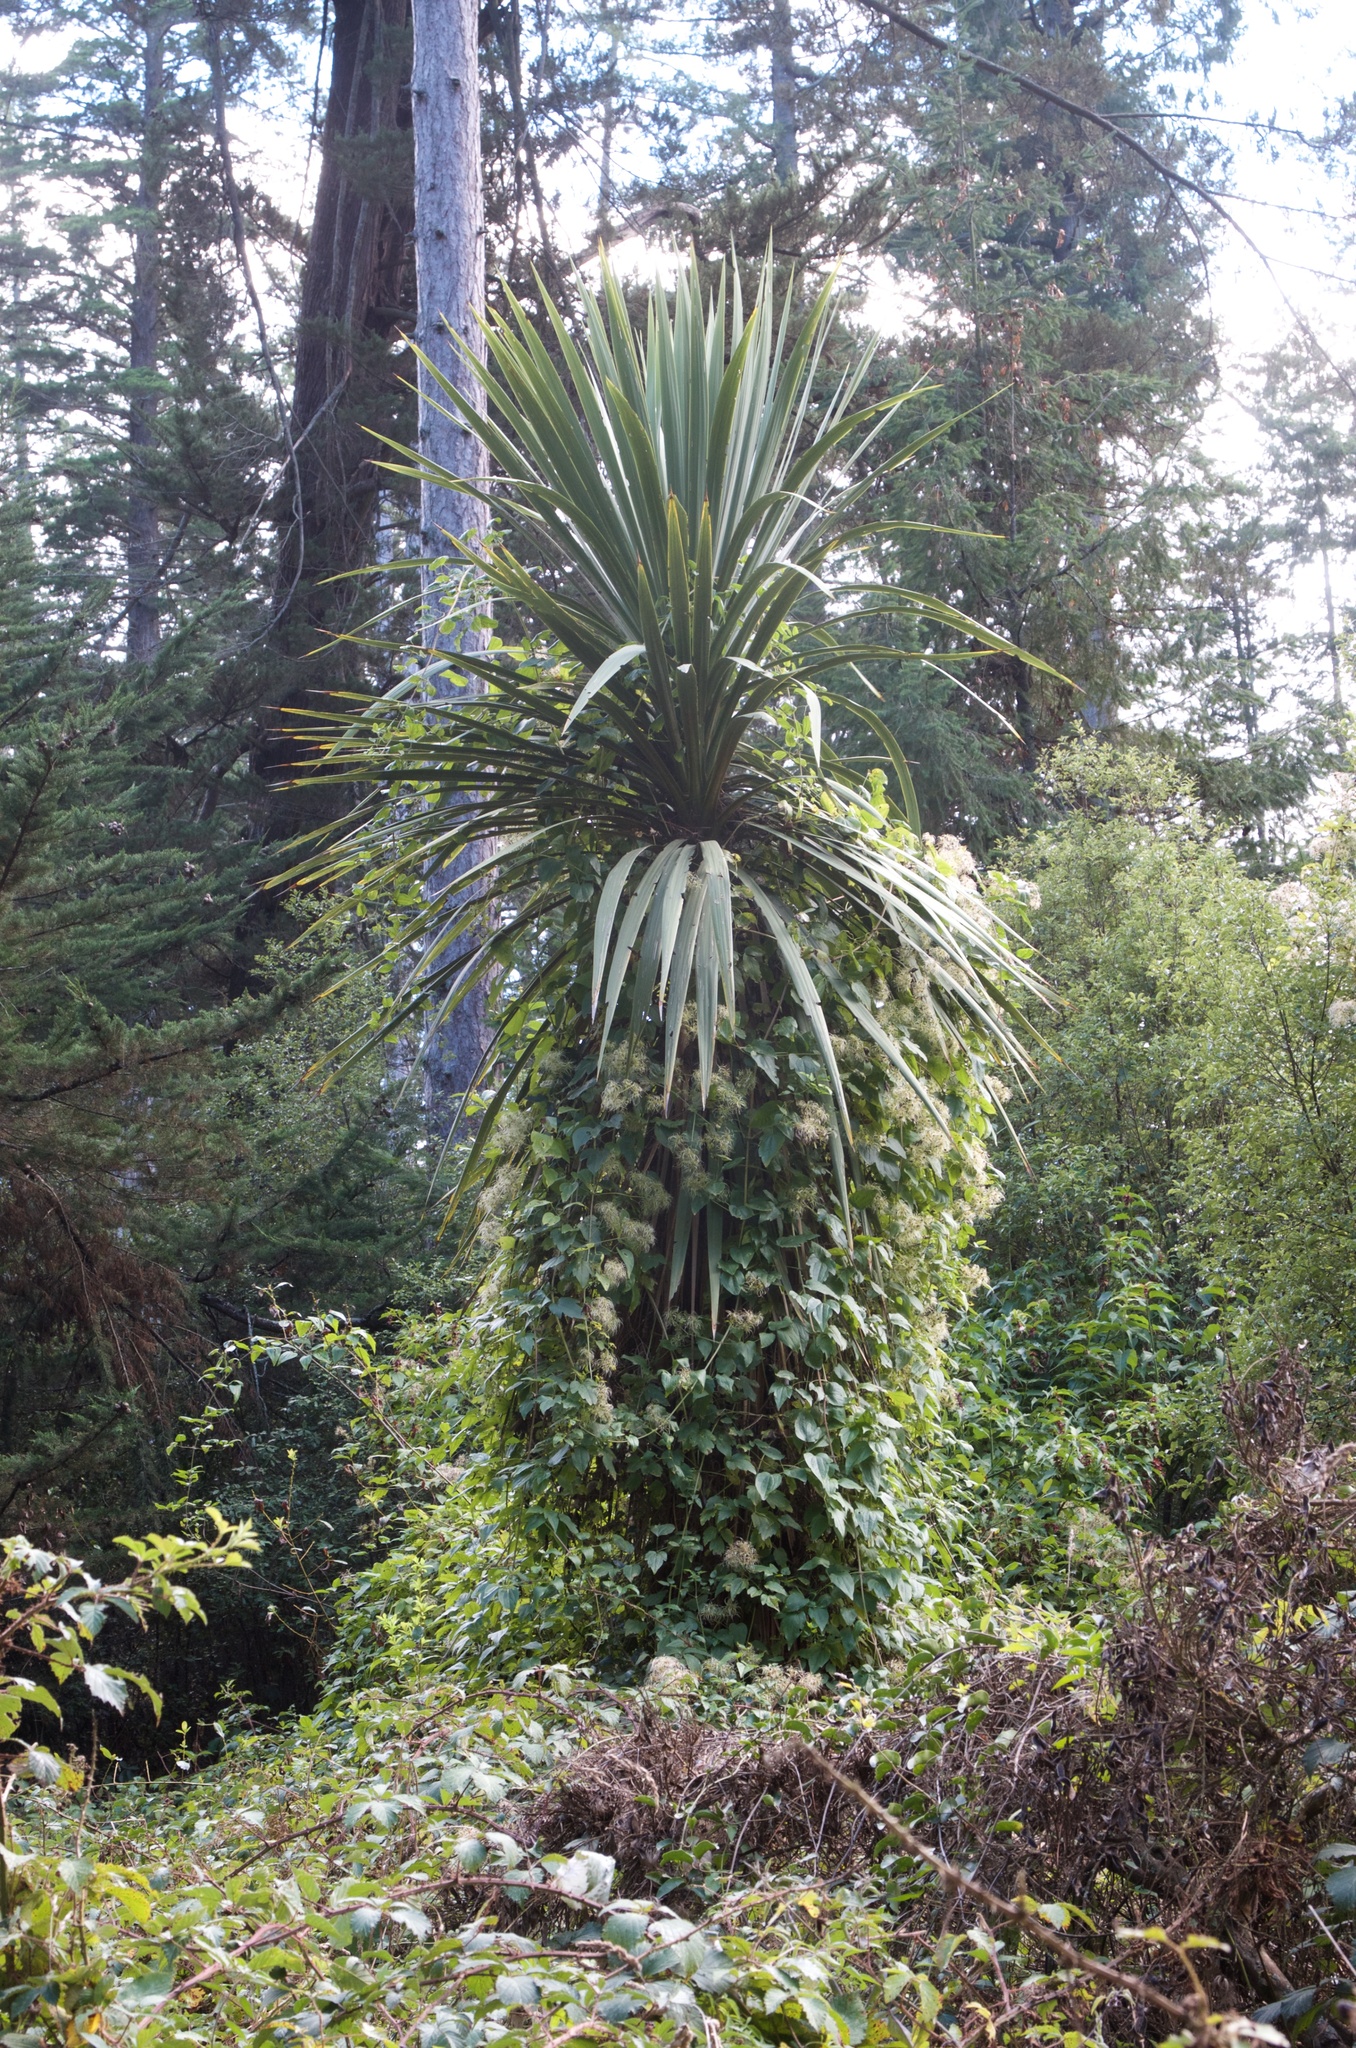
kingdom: Plantae
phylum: Tracheophyta
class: Magnoliopsida
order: Ranunculales
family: Ranunculaceae
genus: Clematis
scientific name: Clematis vitalba
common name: Evergreen clematis
